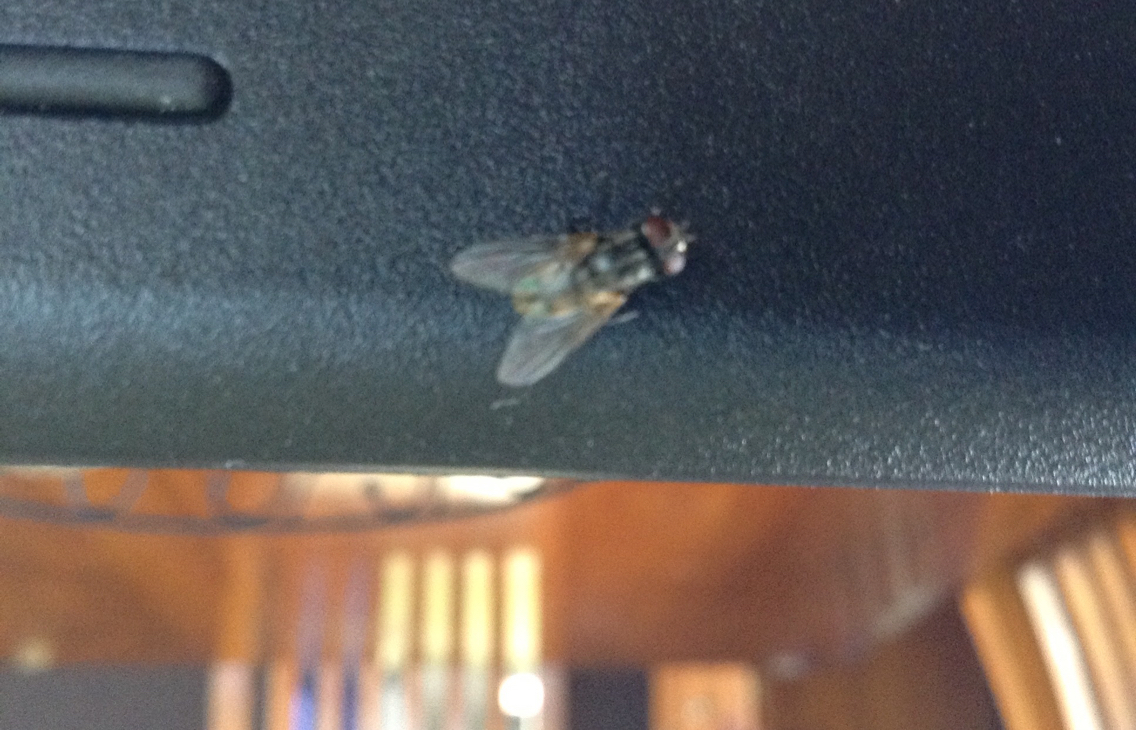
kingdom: Animalia
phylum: Arthropoda
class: Insecta
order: Diptera
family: Muscidae
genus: Musca
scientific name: Musca domestica
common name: House fly
